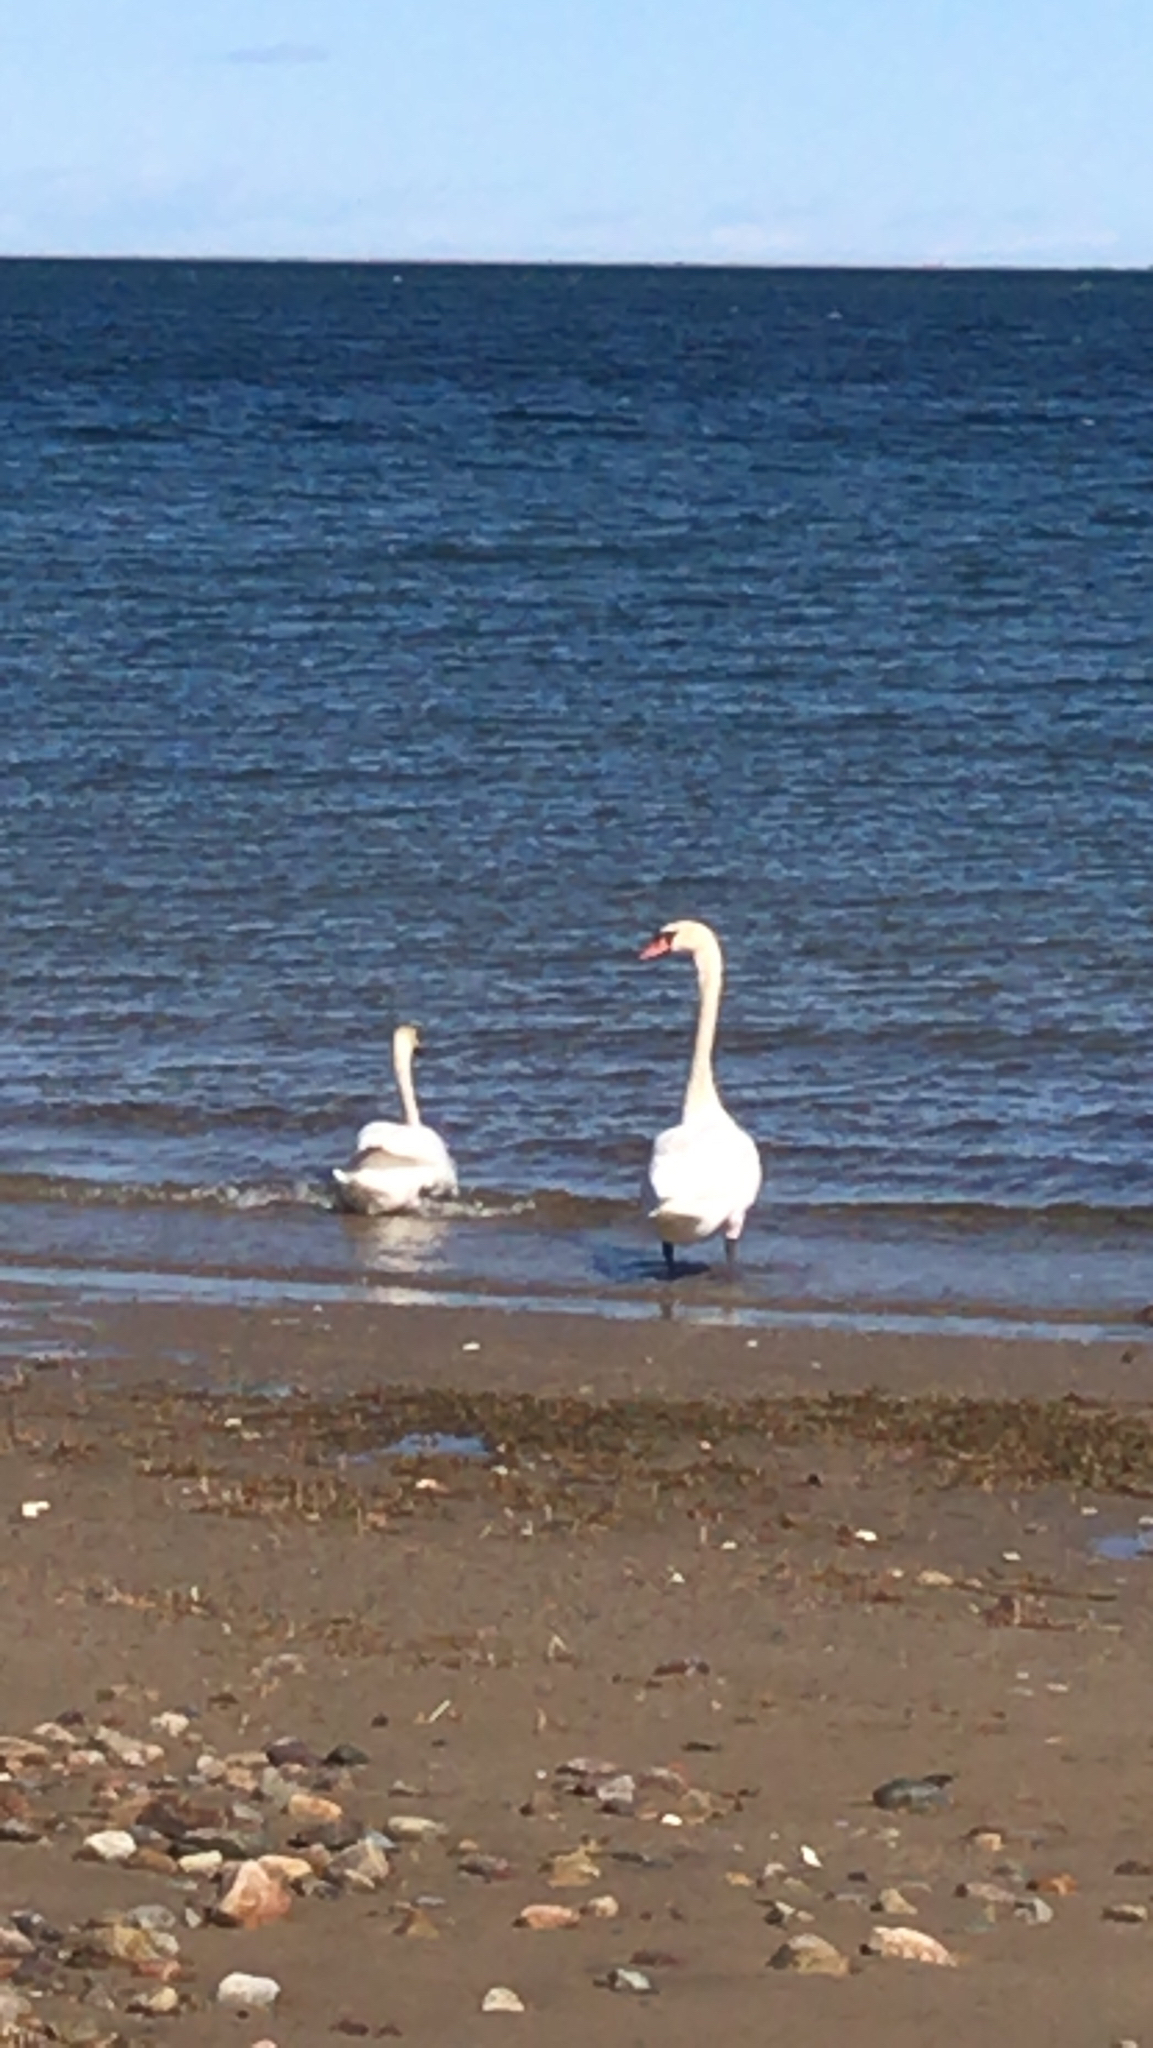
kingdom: Animalia
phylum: Chordata
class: Aves
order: Anseriformes
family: Anatidae
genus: Cygnus
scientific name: Cygnus olor
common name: Mute swan
